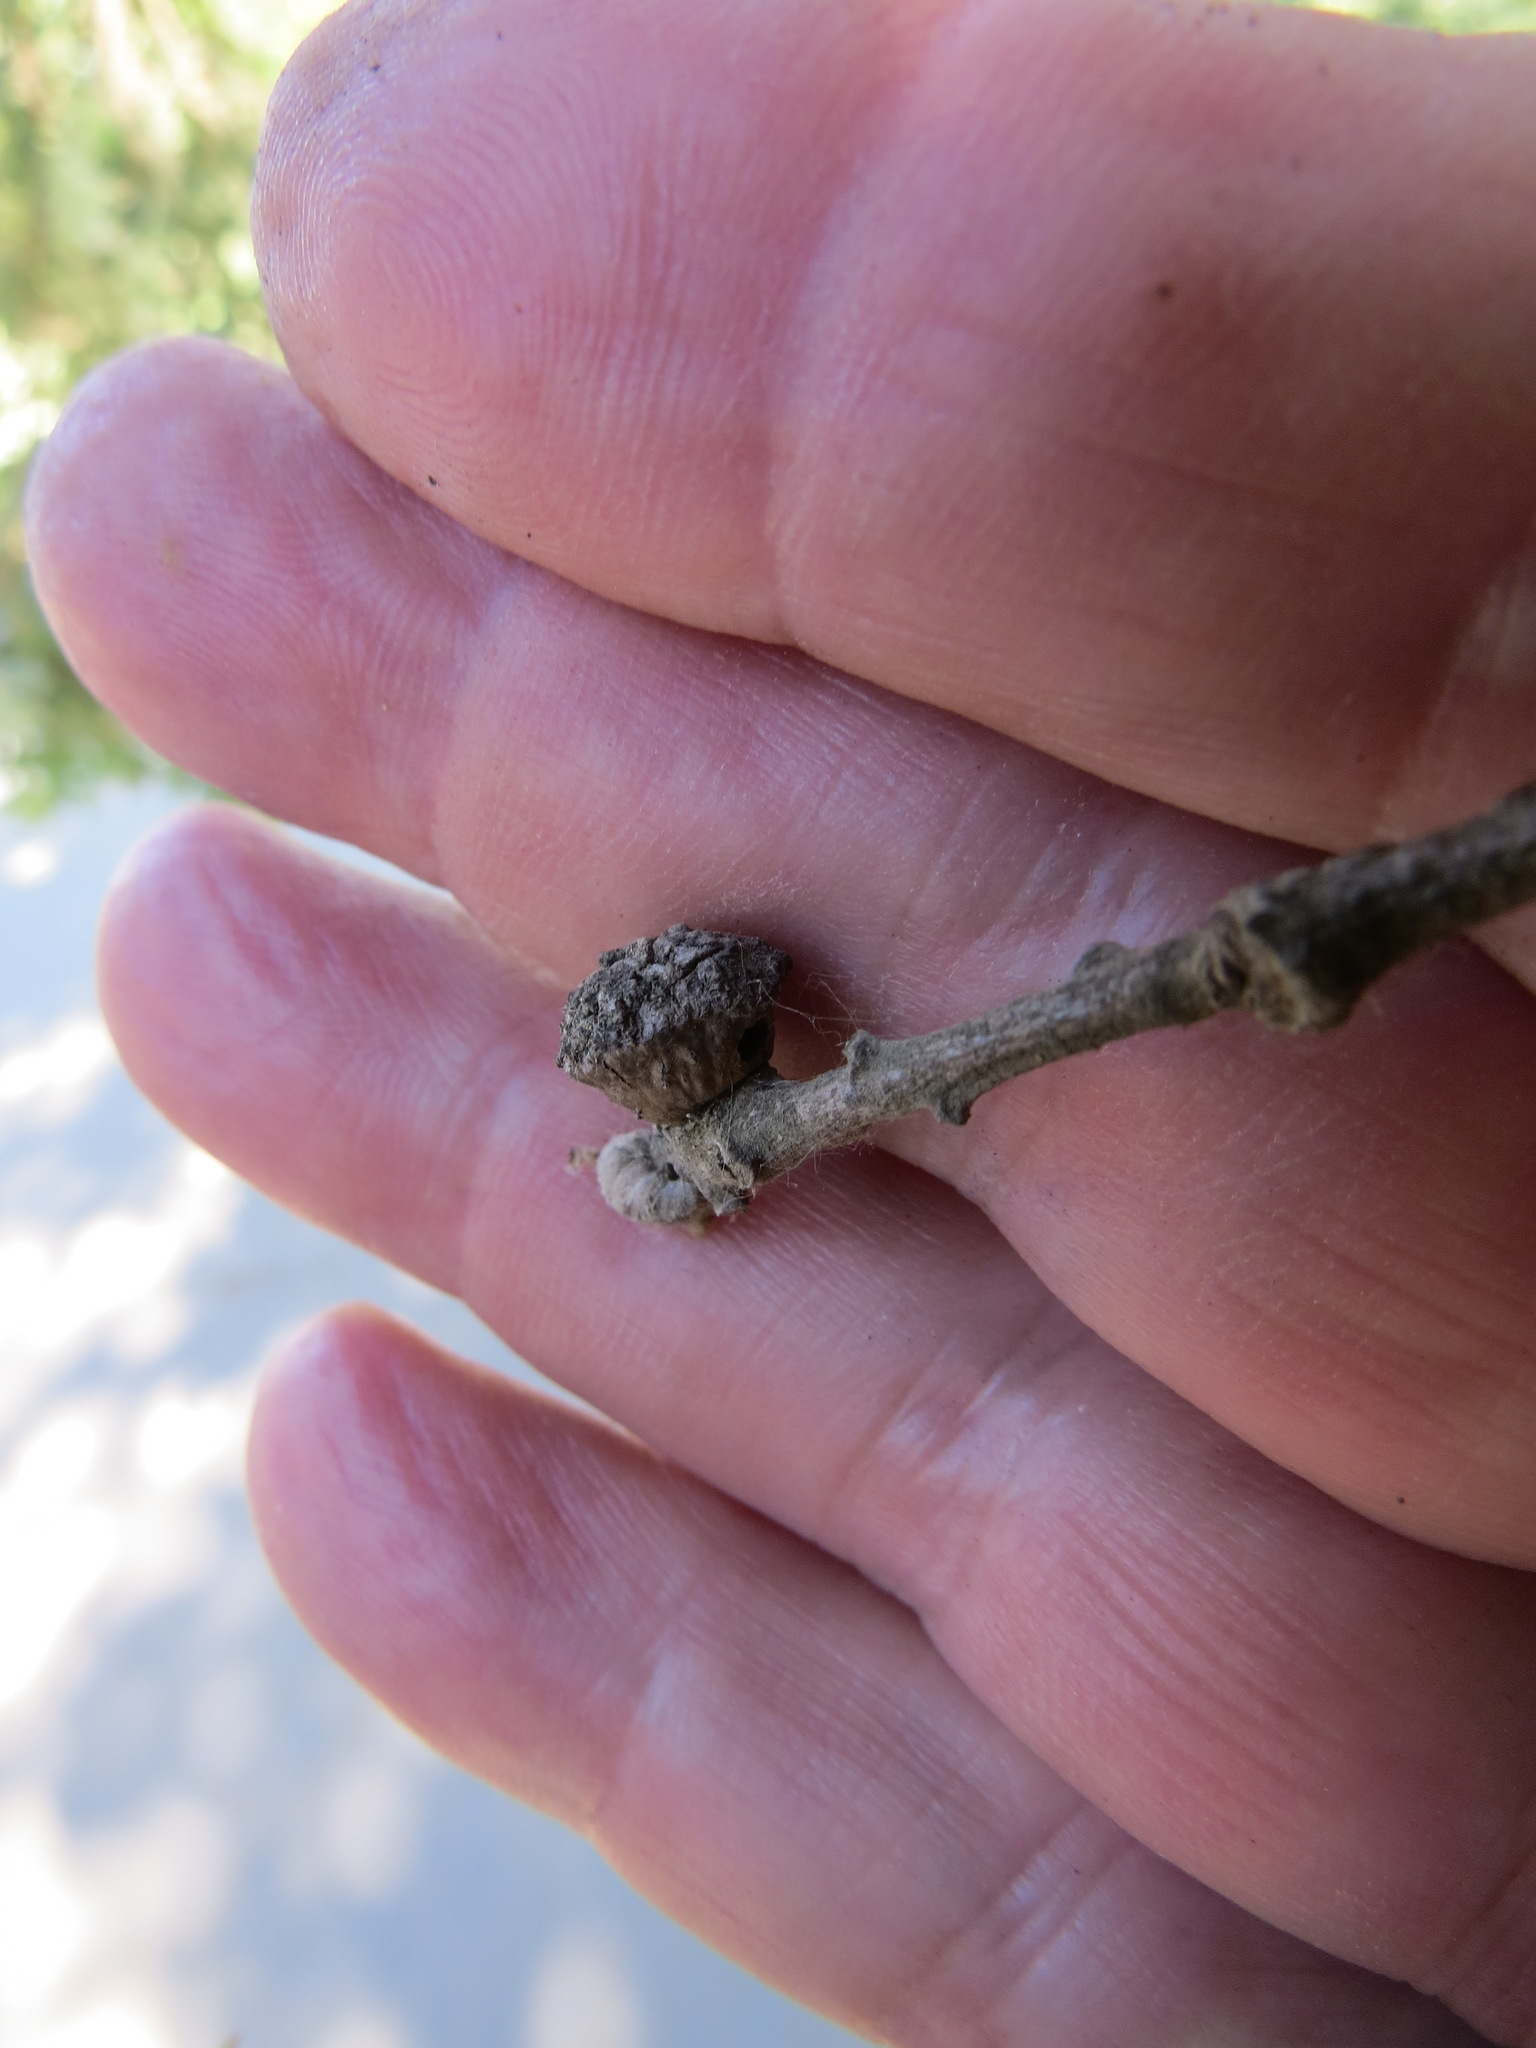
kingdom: Animalia
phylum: Arthropoda
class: Insecta
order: Hymenoptera
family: Cynipidae
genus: Disholcaspis
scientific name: Disholcaspis
